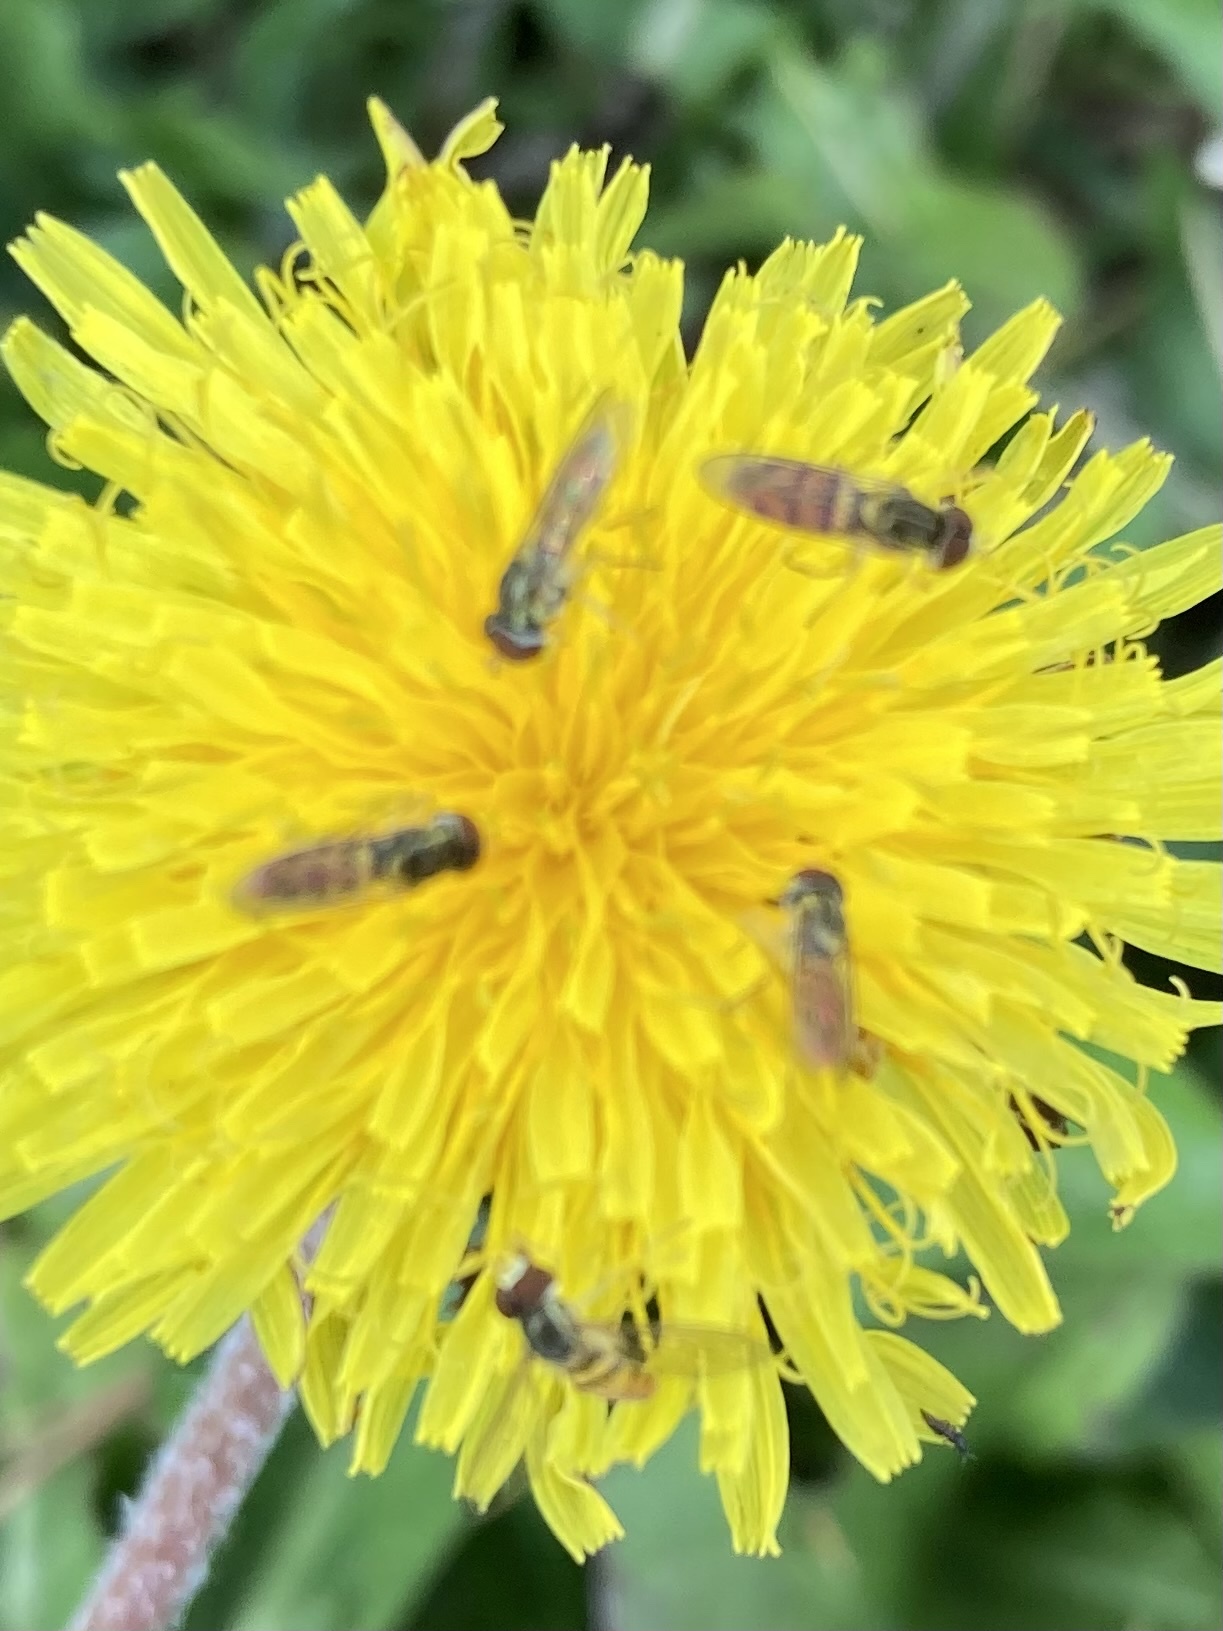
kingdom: Animalia
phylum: Arthropoda
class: Insecta
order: Diptera
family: Syrphidae
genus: Toxomerus
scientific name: Toxomerus marginatus
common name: Syrphid fly
